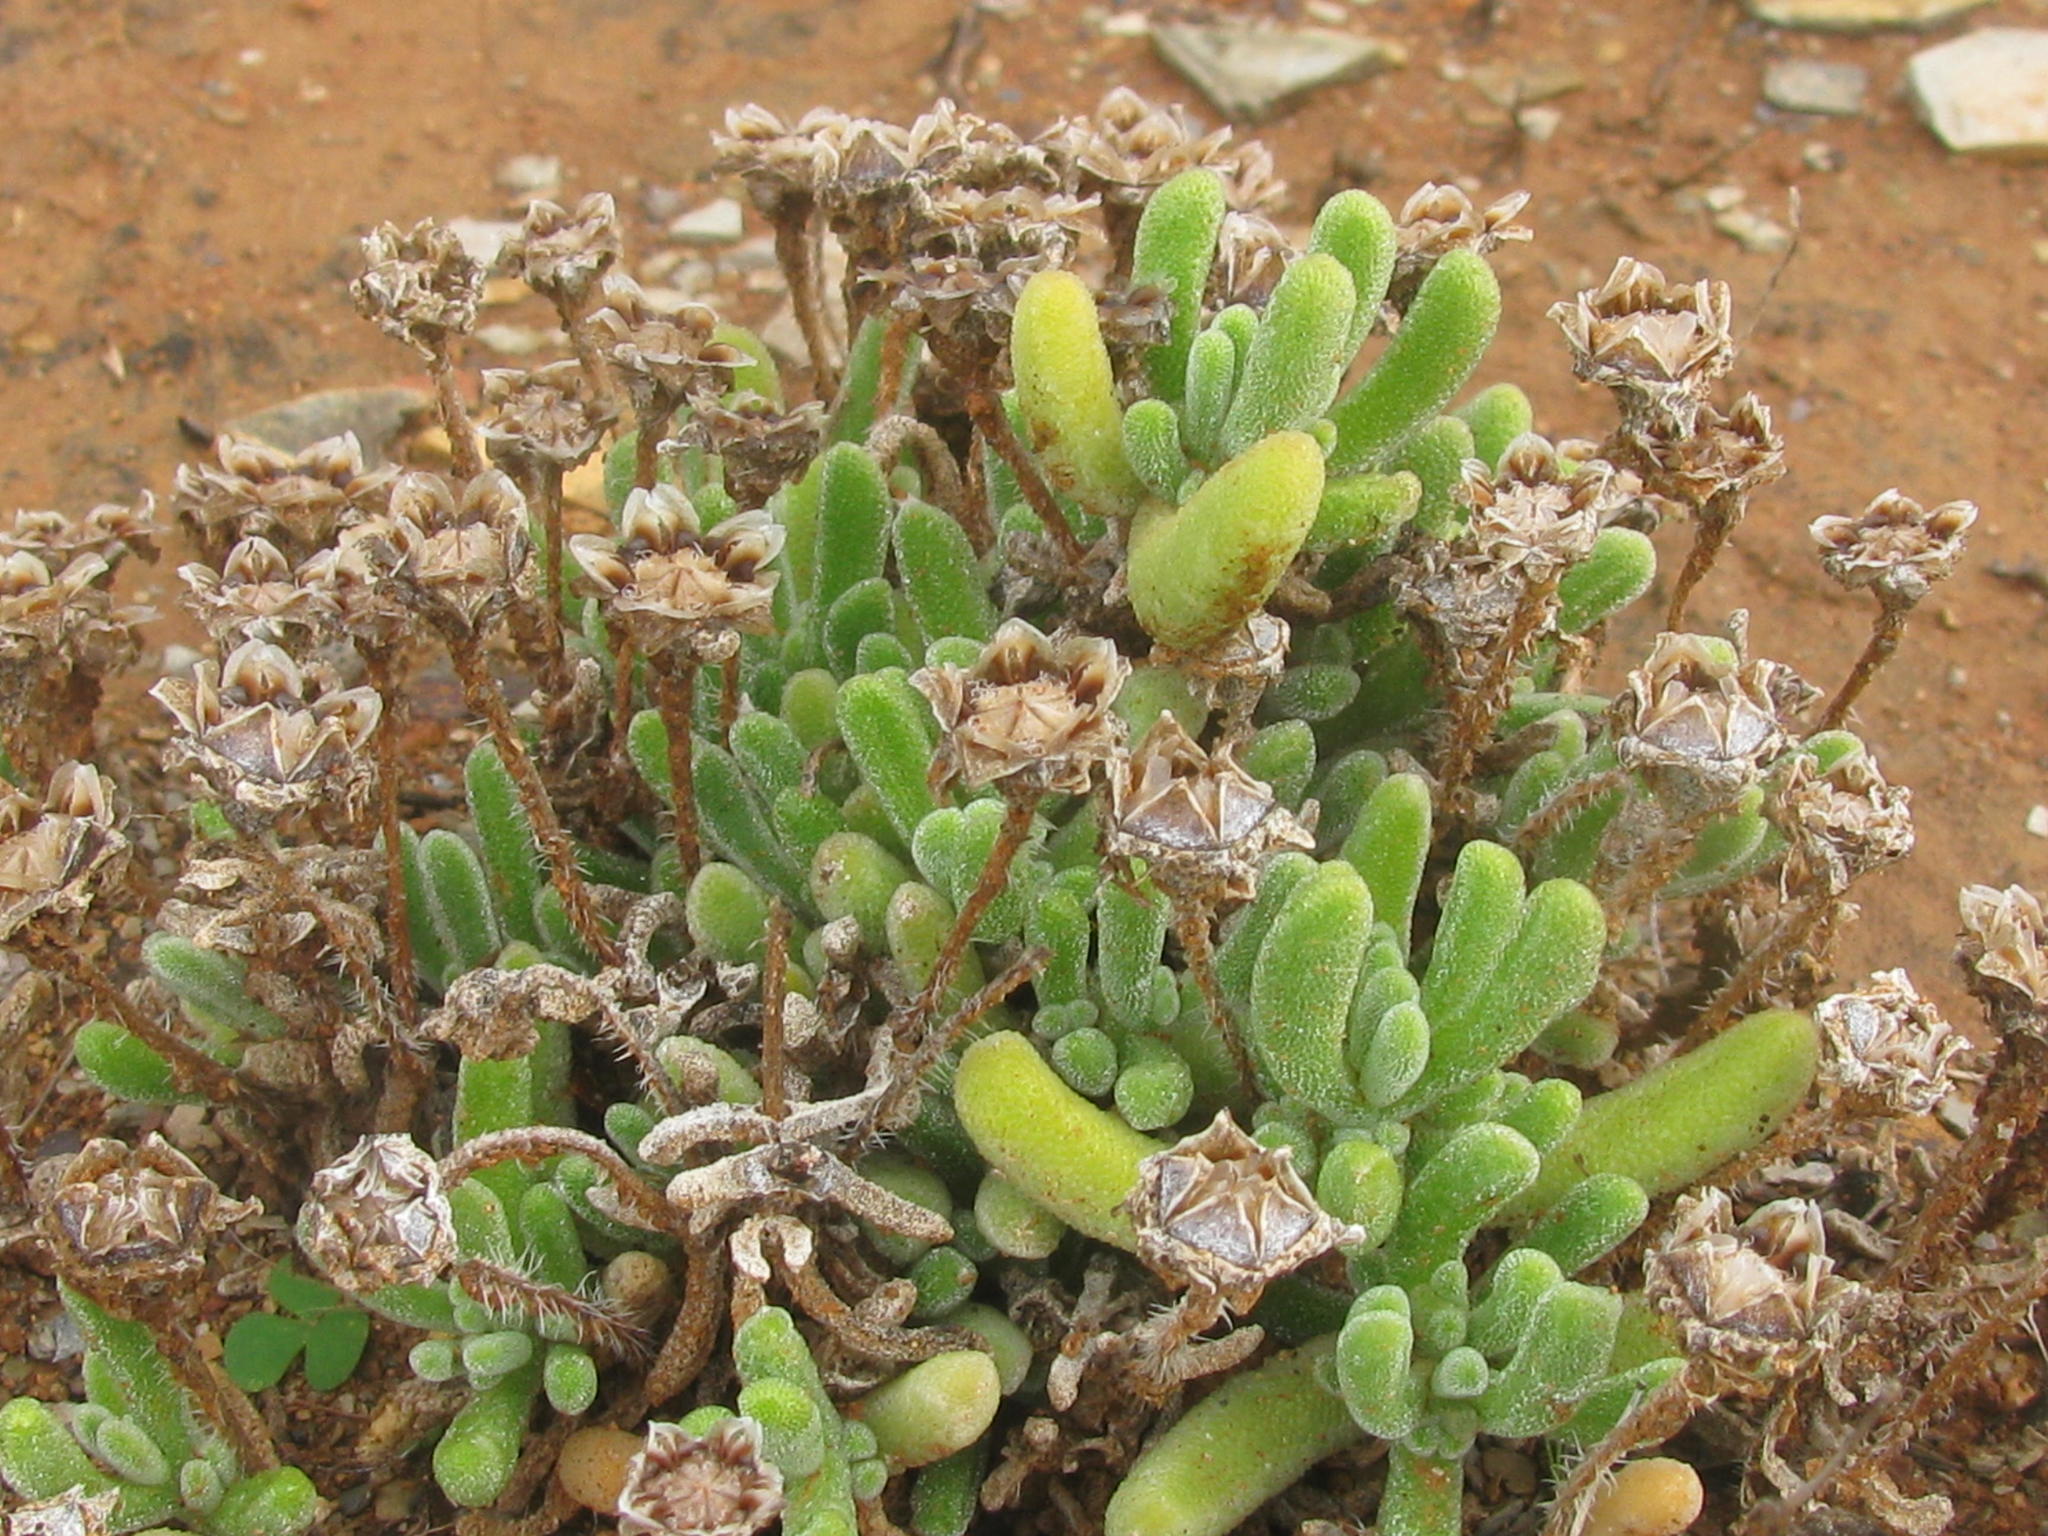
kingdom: Plantae
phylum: Tracheophyta
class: Magnoliopsida
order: Caryophyllales
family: Aizoaceae
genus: Drosanthemum
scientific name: Drosanthemum framesii
